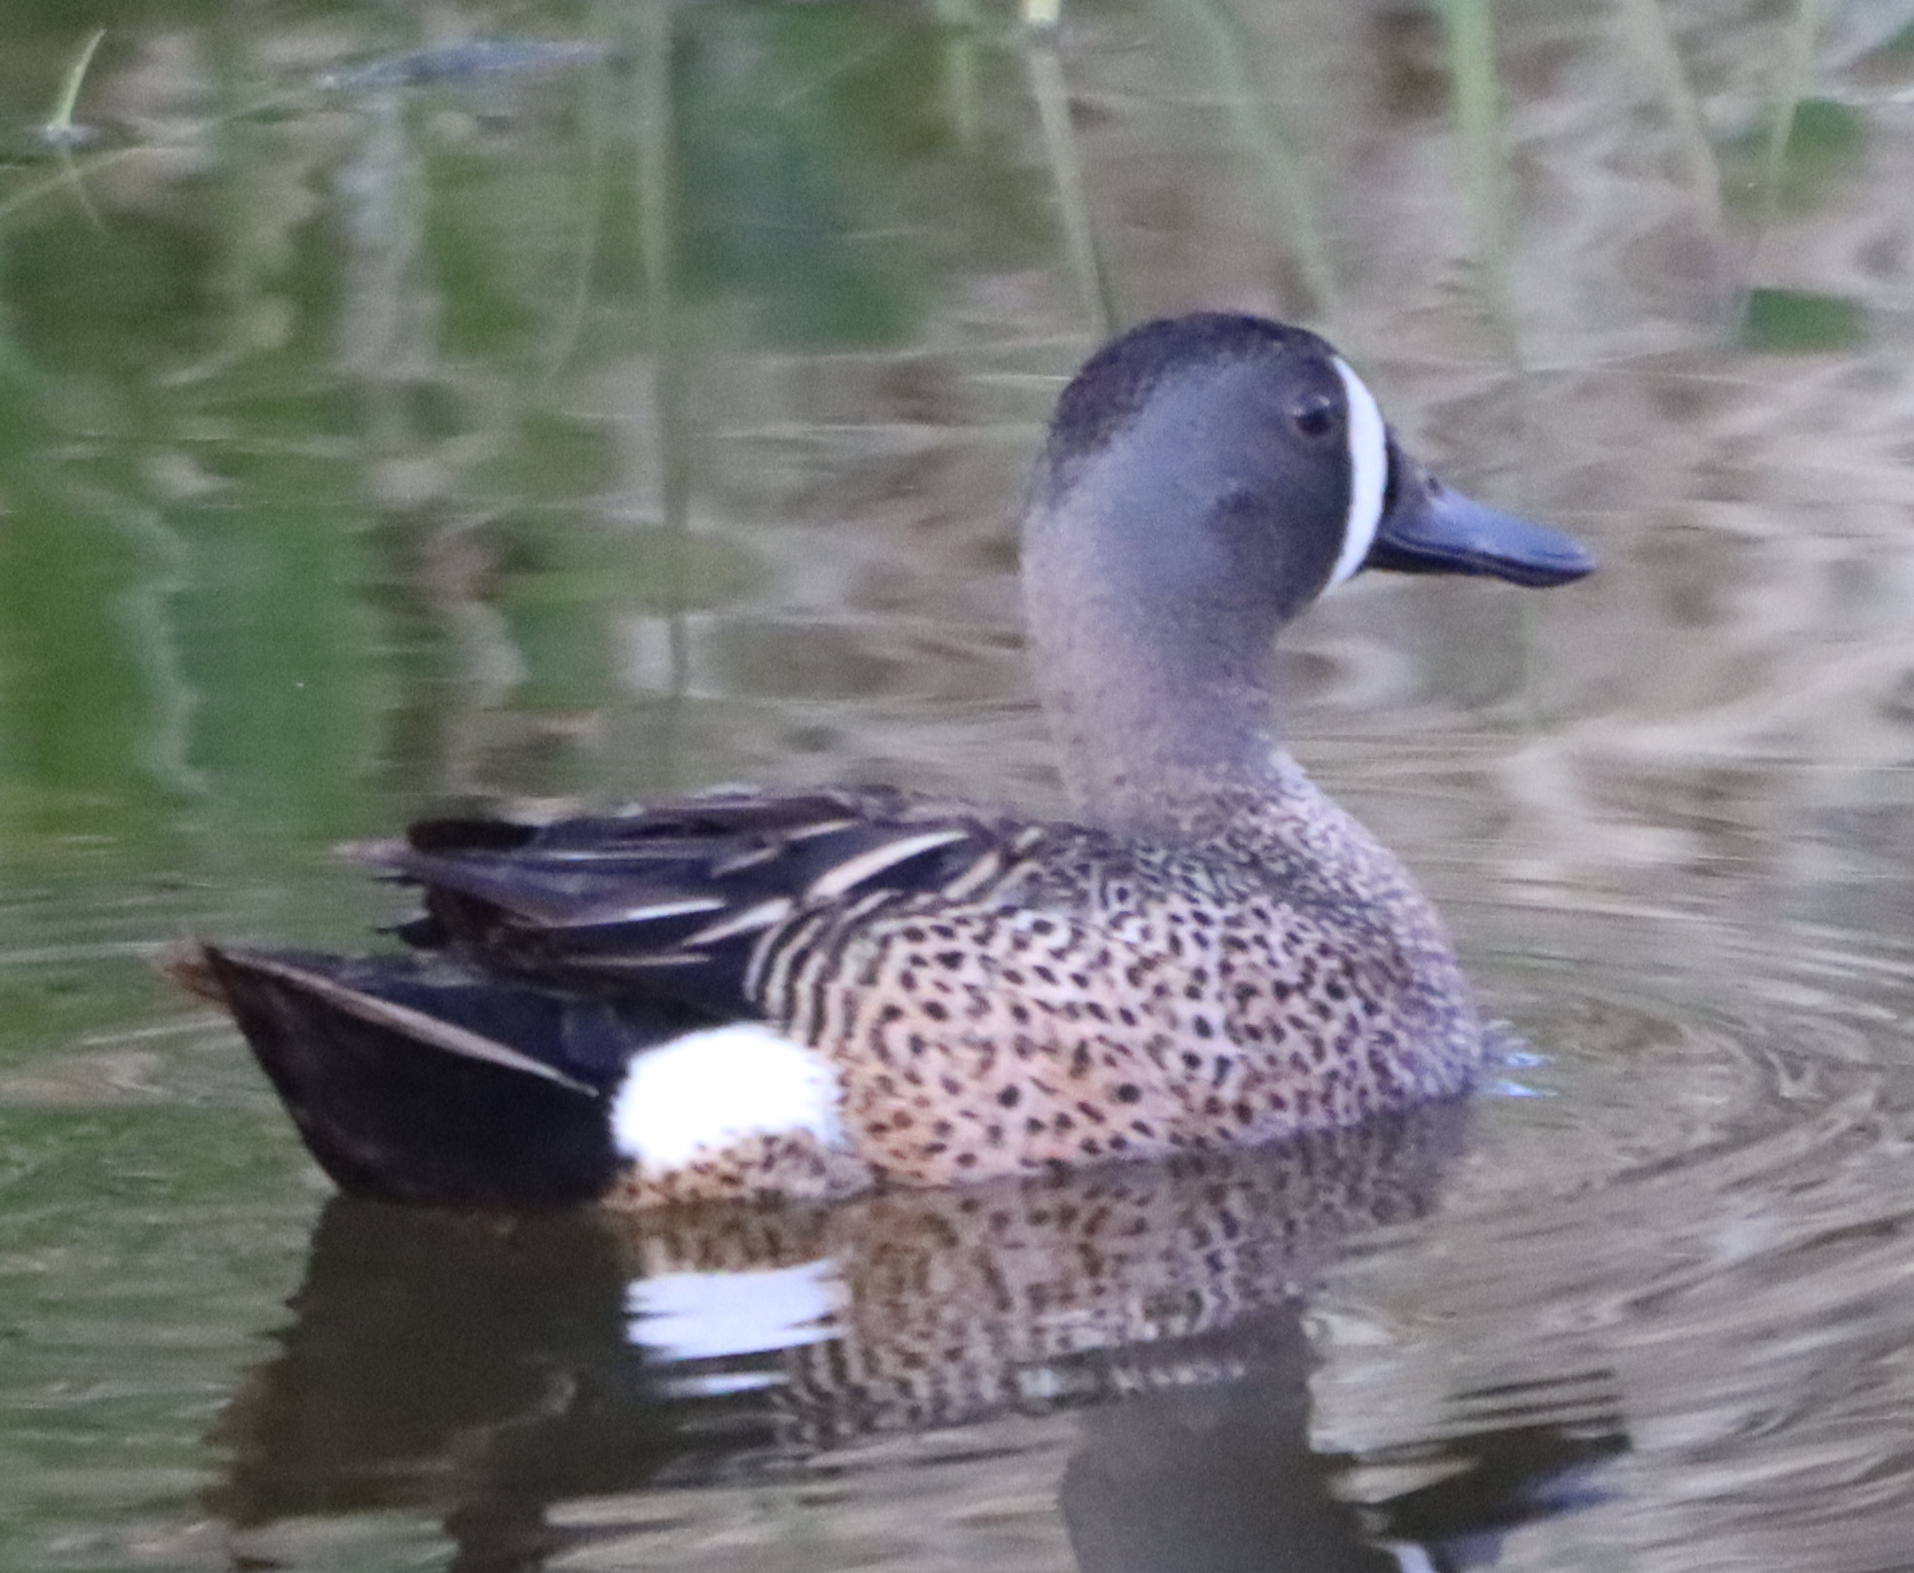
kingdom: Animalia
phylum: Chordata
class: Aves
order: Anseriformes
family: Anatidae
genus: Spatula
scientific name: Spatula discors
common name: Blue-winged teal
